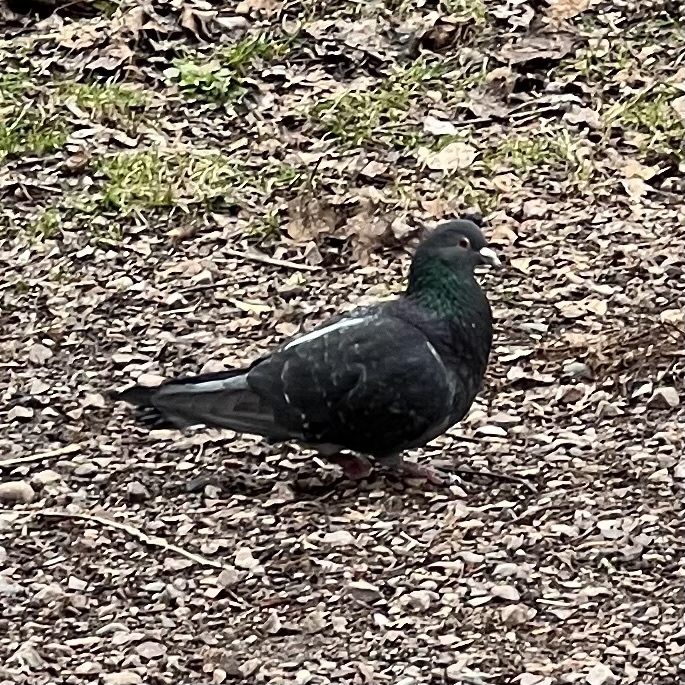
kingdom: Animalia
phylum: Chordata
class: Aves
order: Columbiformes
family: Columbidae
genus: Columba
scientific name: Columba livia
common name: Rock pigeon
